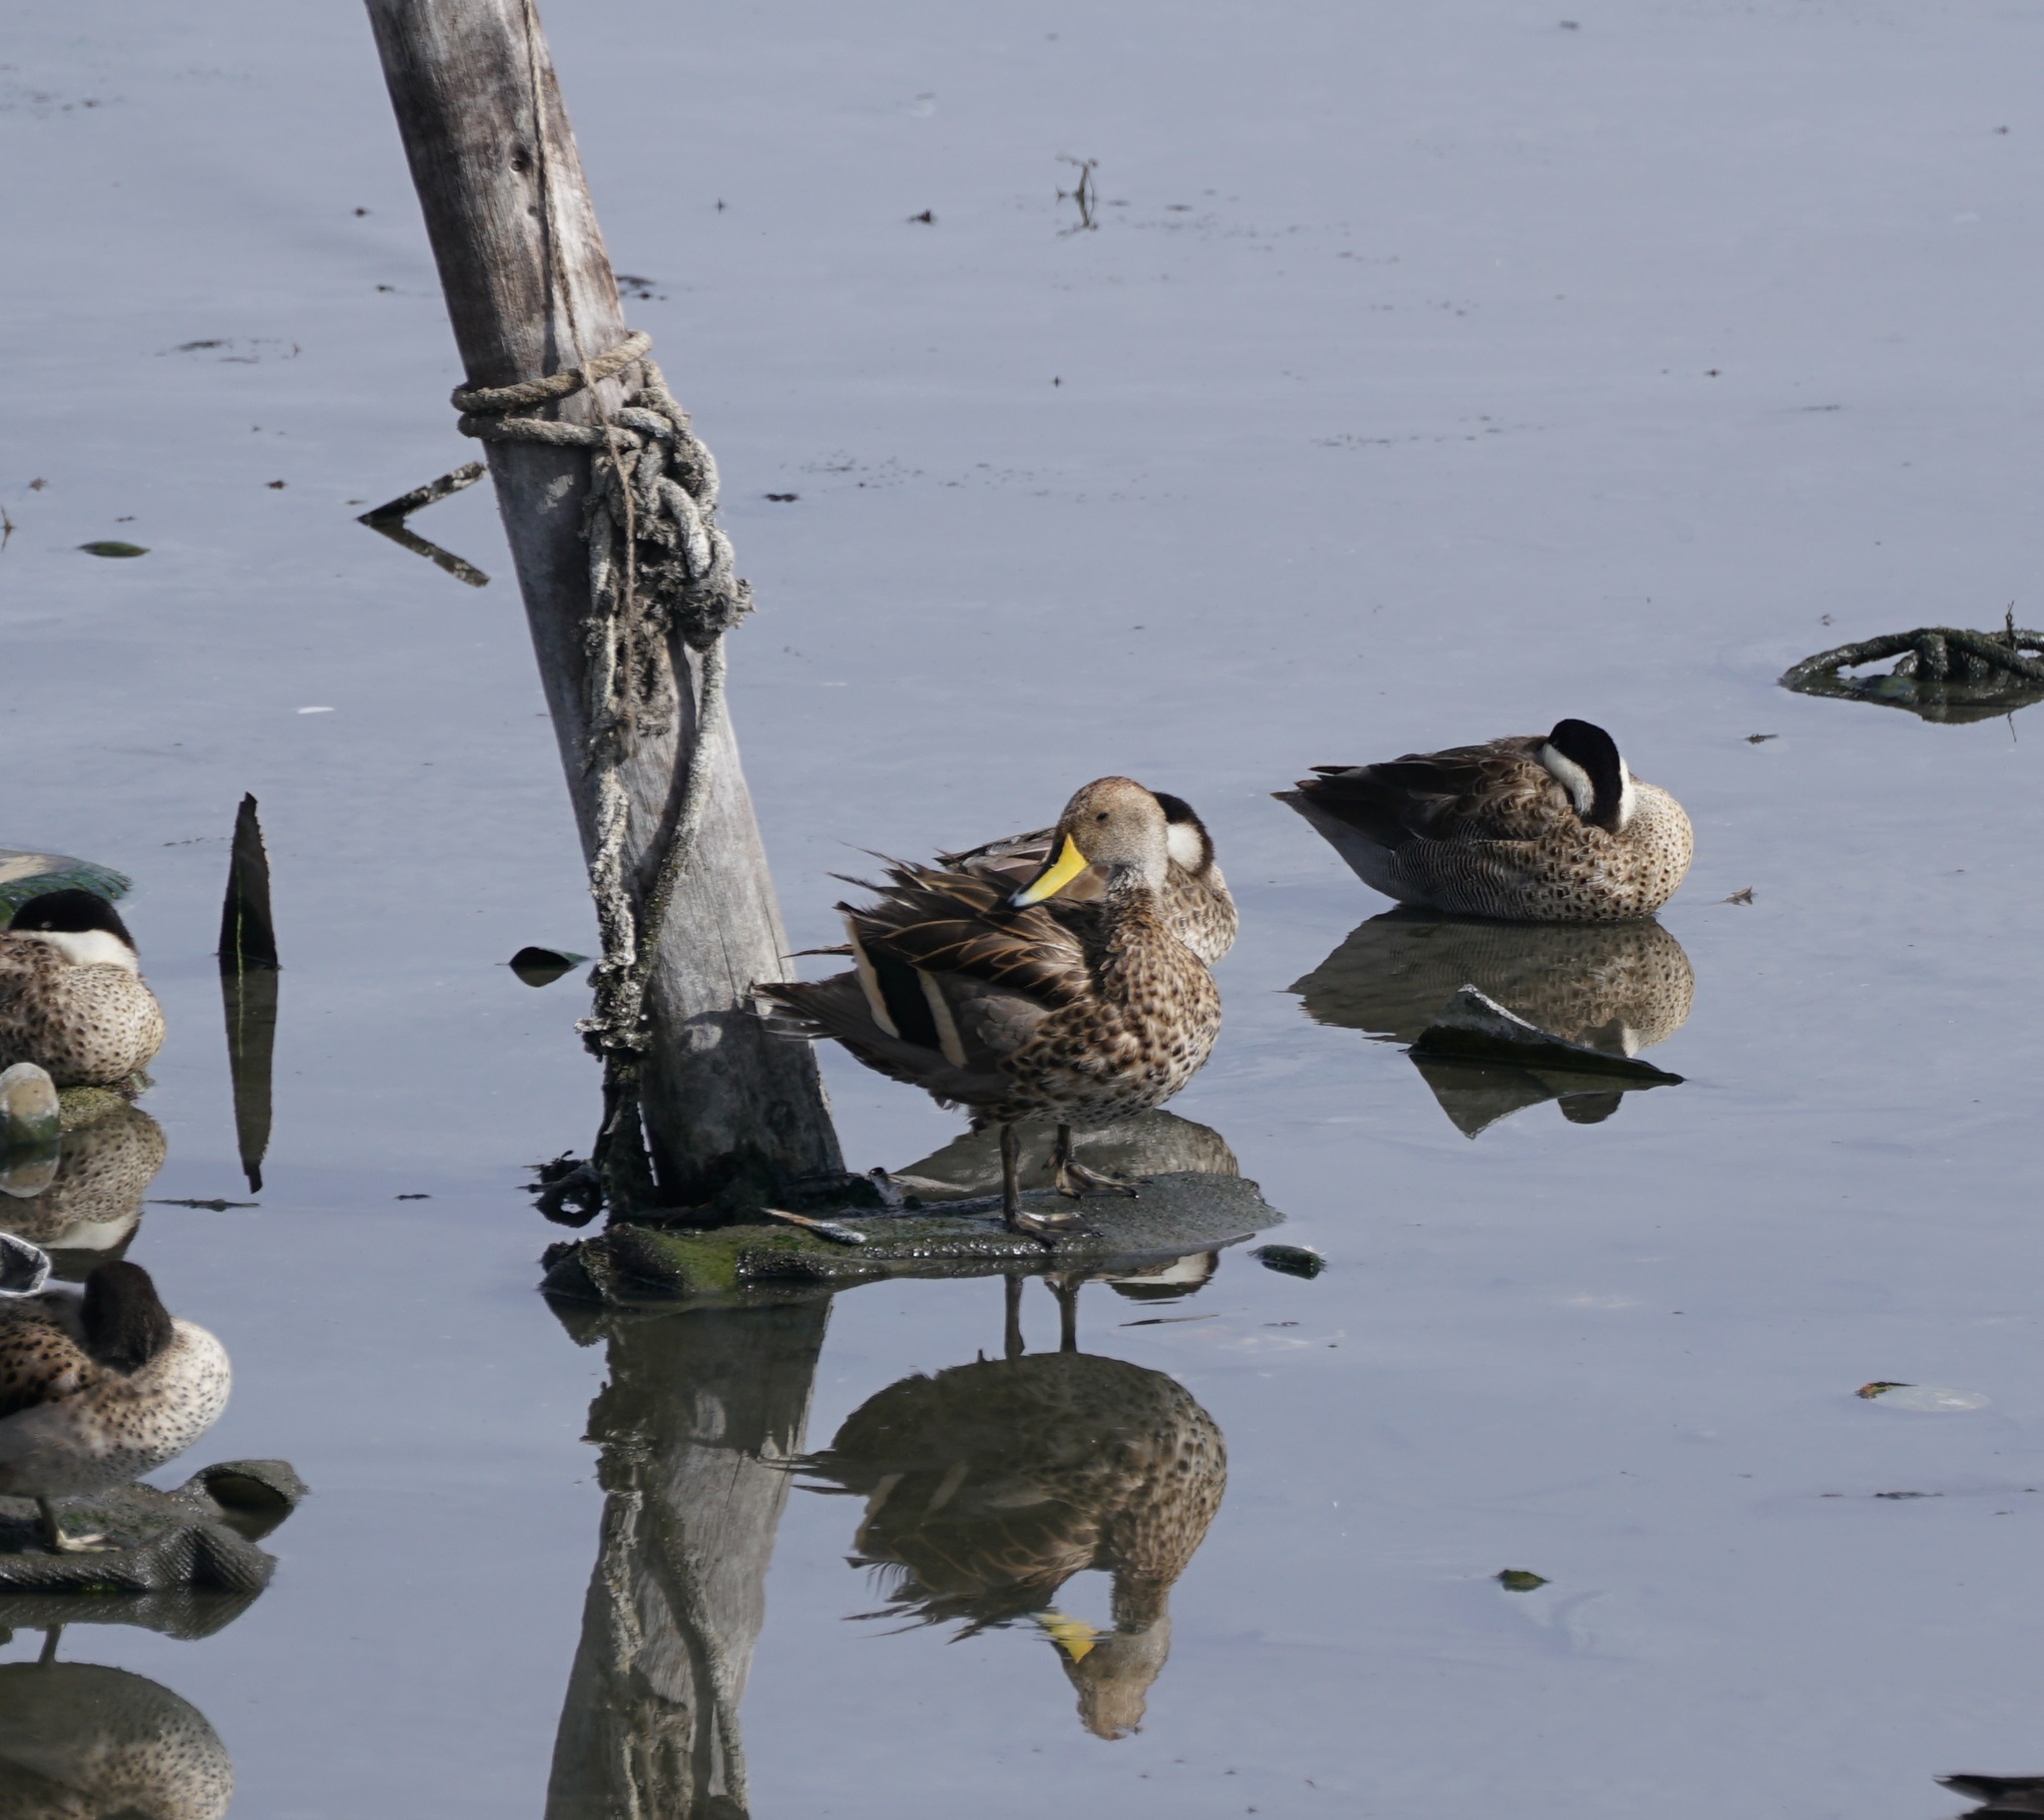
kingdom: Animalia
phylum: Chordata
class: Aves
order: Anseriformes
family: Anatidae
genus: Anas
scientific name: Anas georgica
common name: Yellow-billed pintail
